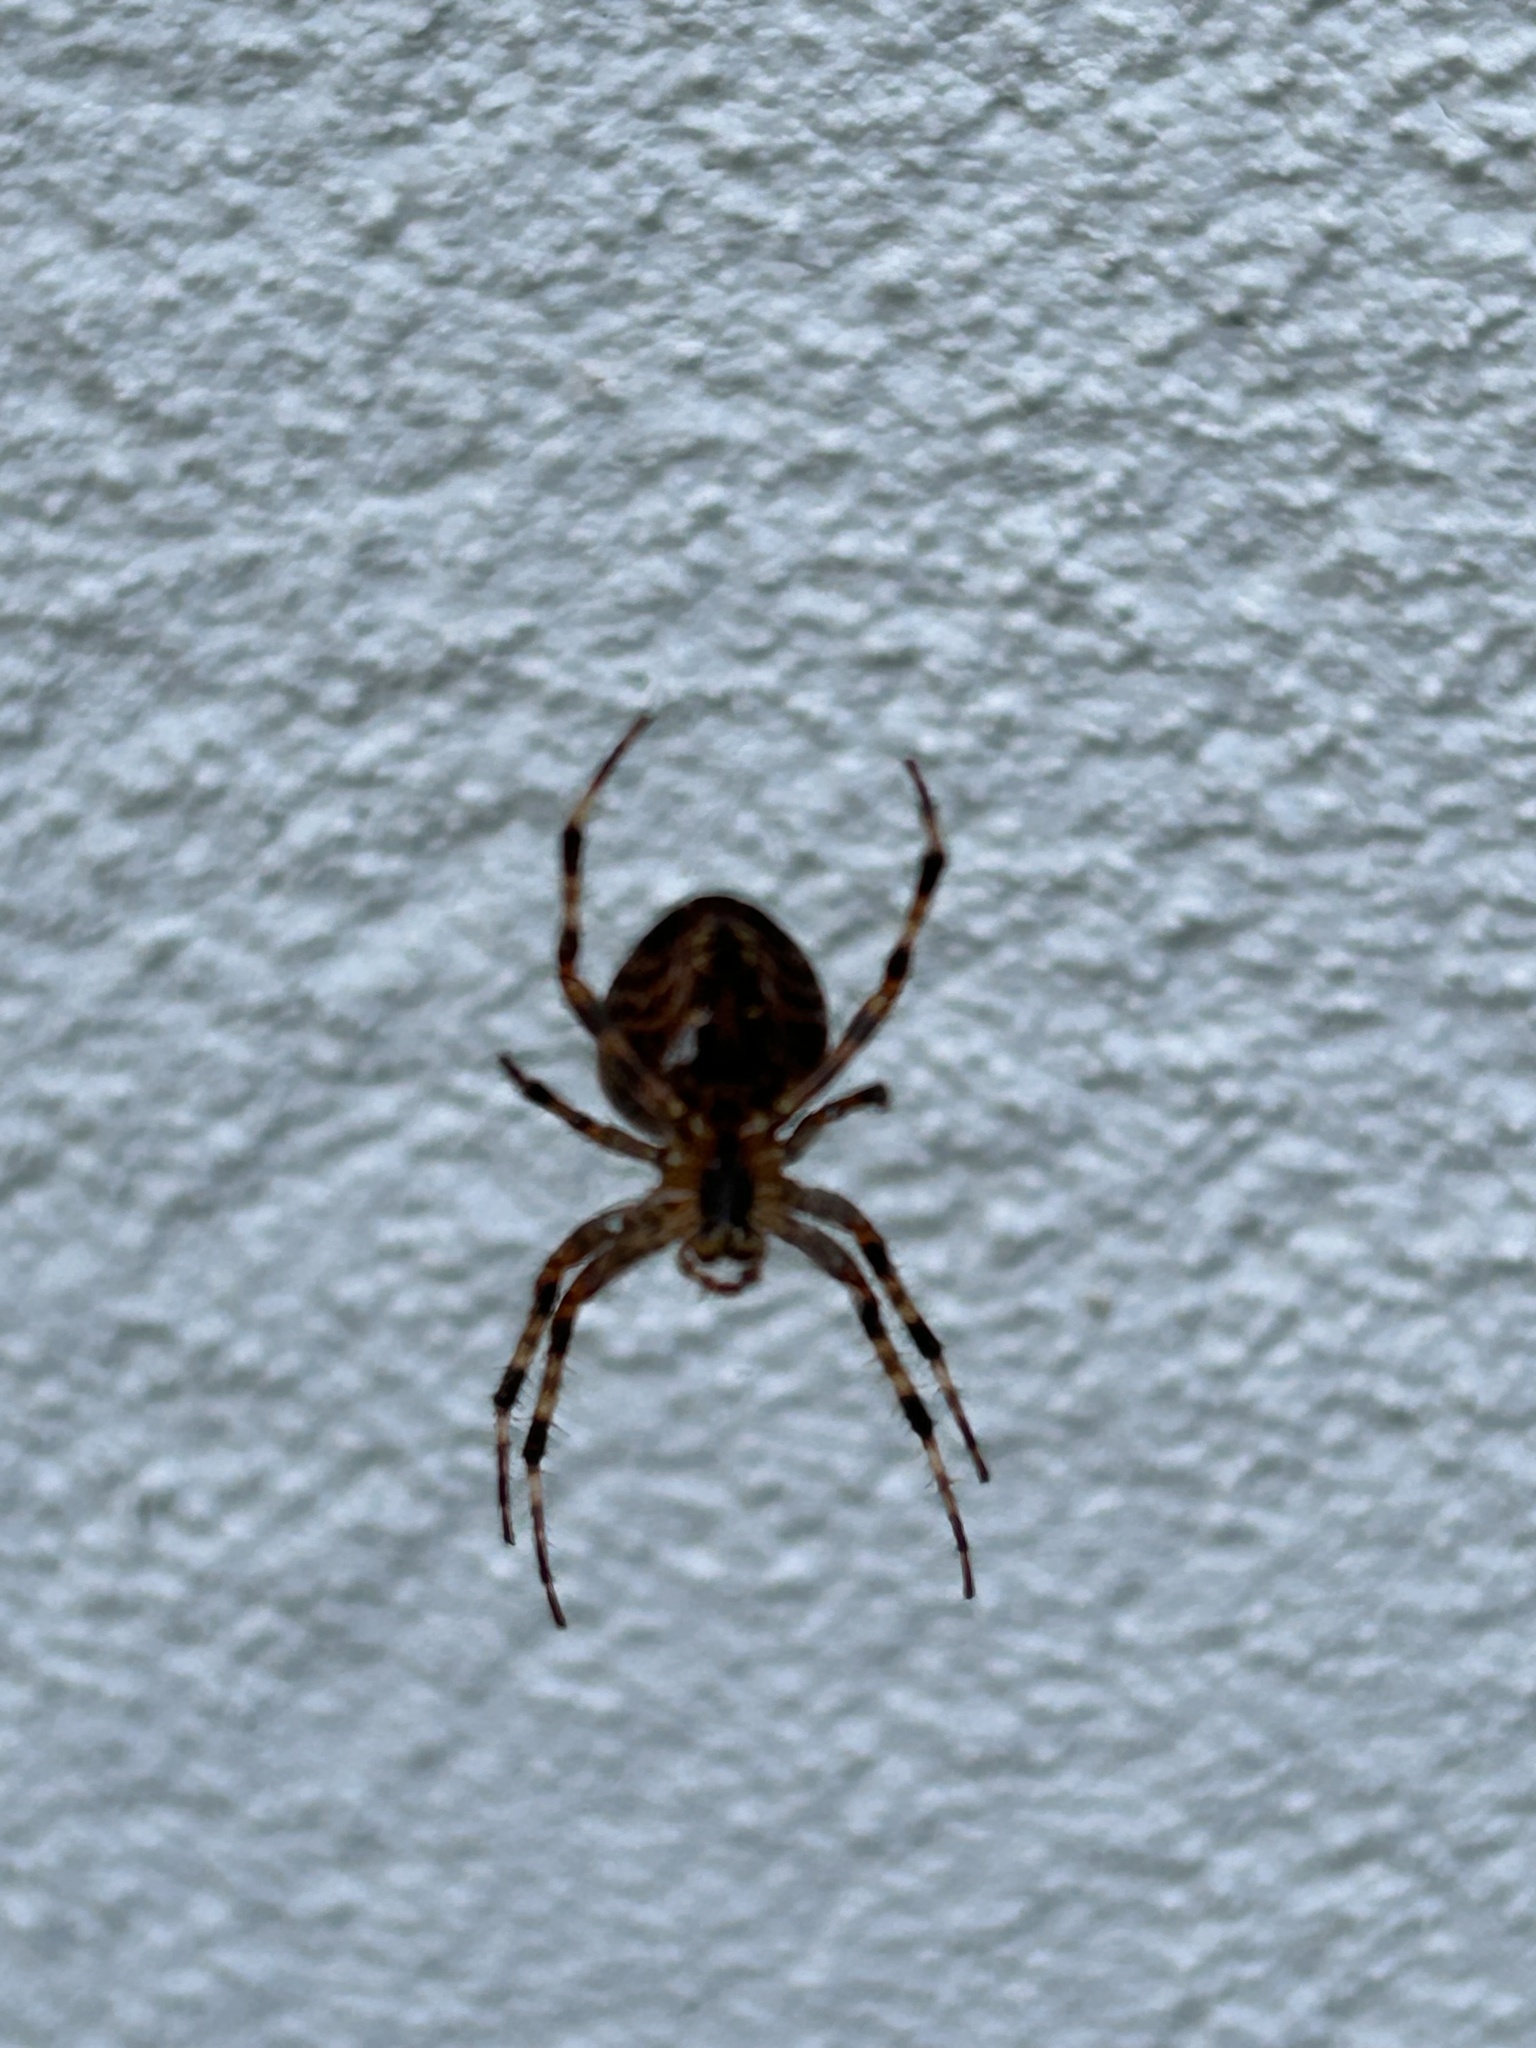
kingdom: Animalia
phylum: Arthropoda
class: Arachnida
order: Araneae
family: Araneidae
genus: Araneus
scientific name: Araneus diadematus
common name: Cross orbweaver
